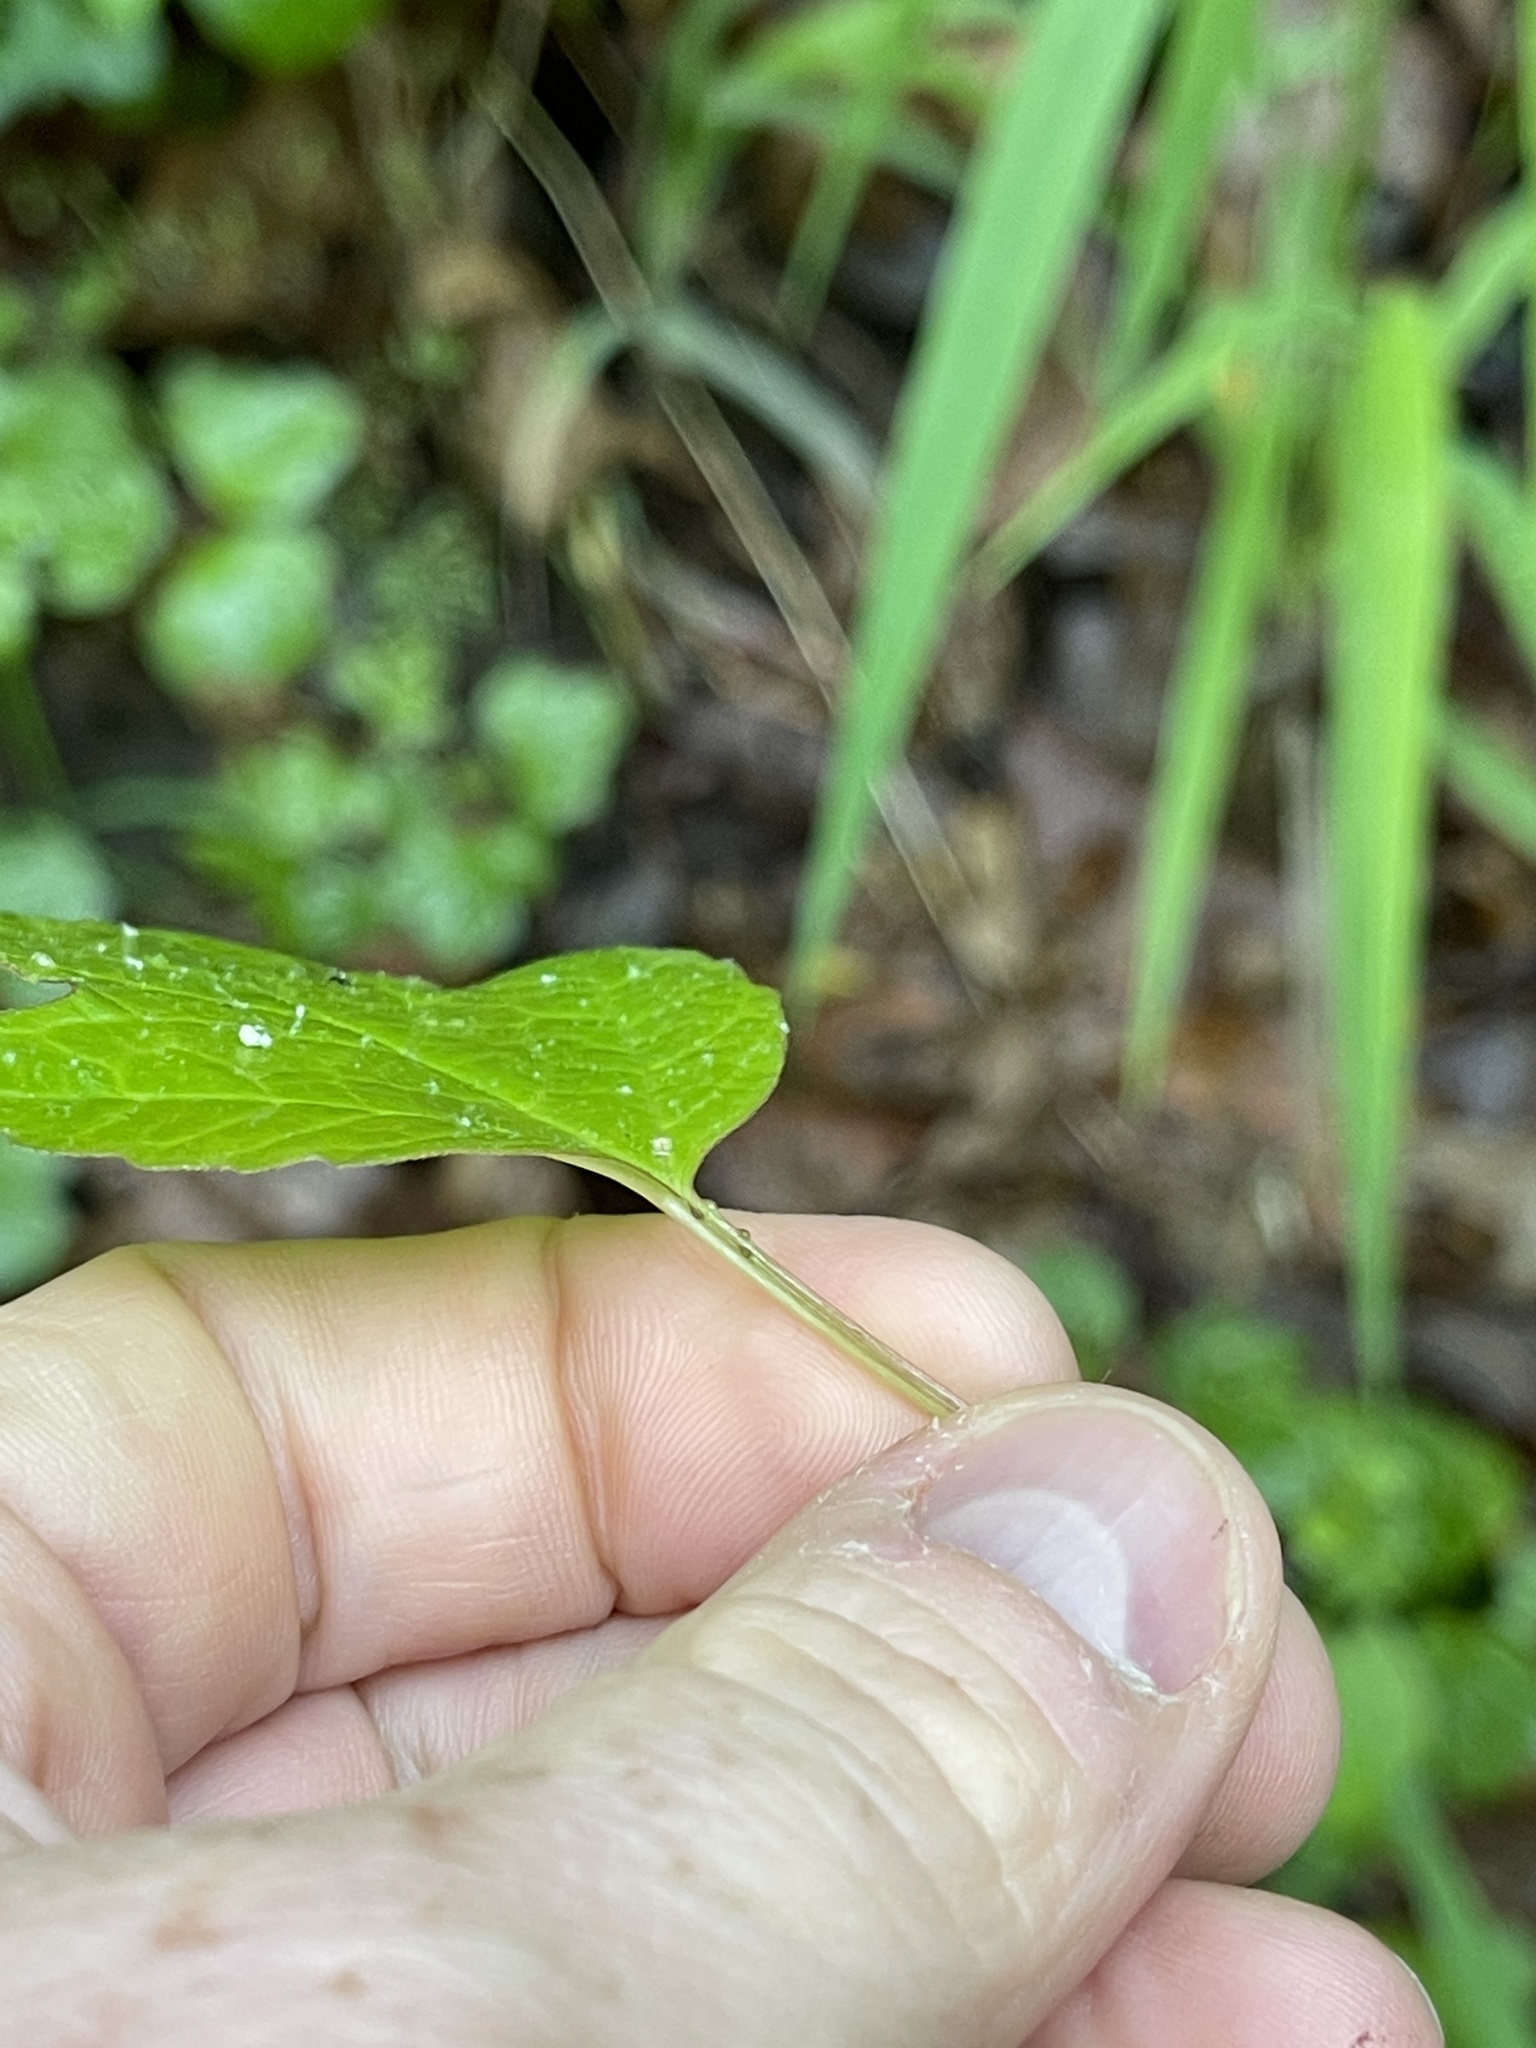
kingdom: Plantae
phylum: Tracheophyta
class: Magnoliopsida
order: Dipsacales
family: Viburnaceae
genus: Viburnum
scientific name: Viburnum opulus
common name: Guelder-rose
